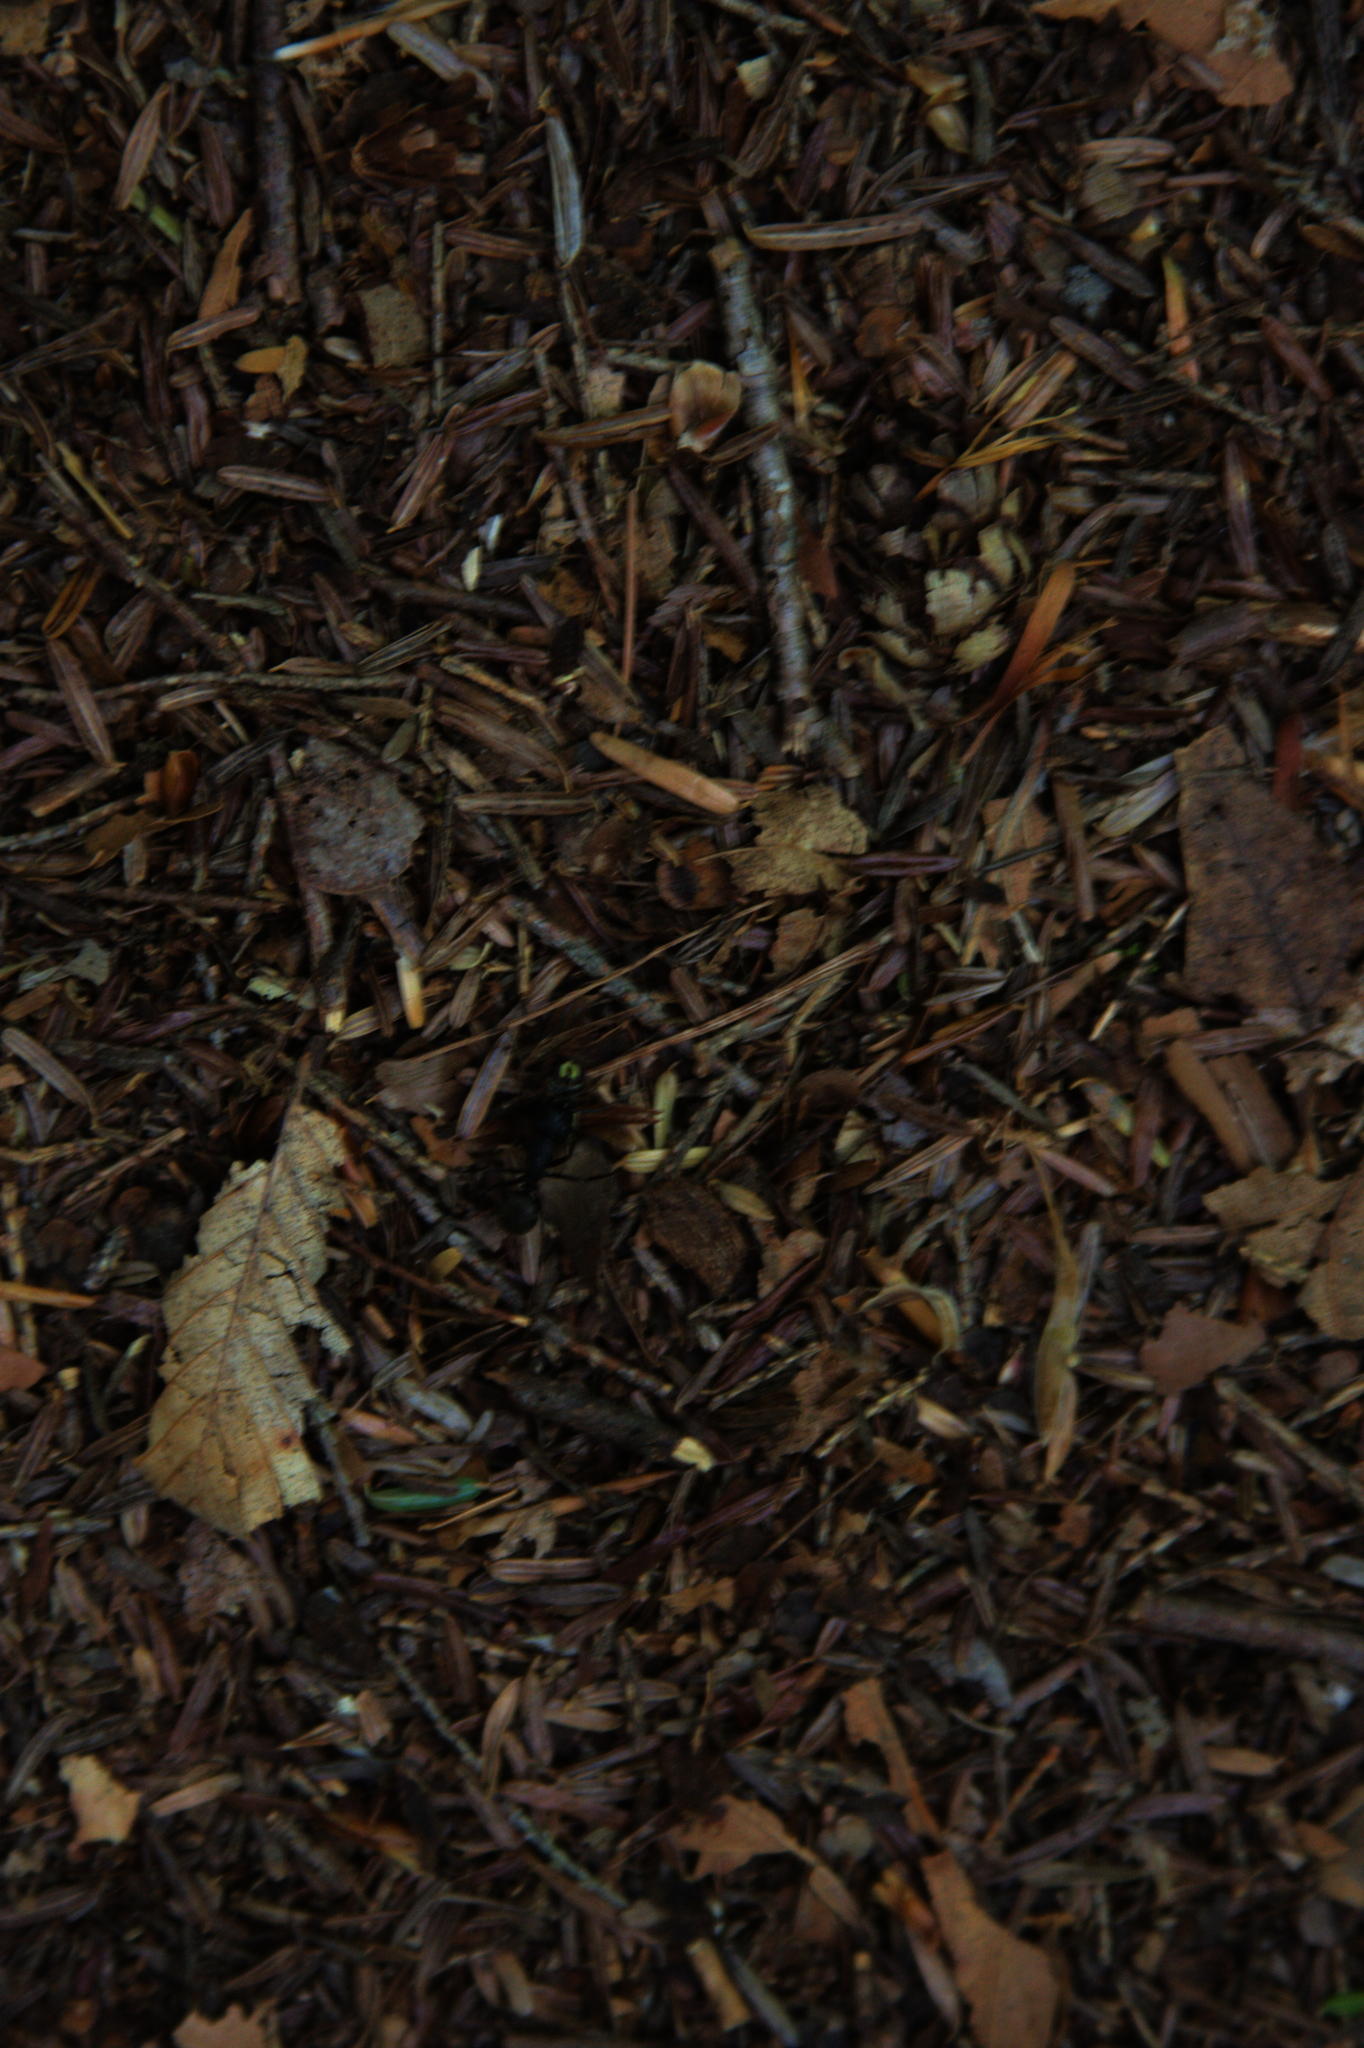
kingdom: Animalia
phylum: Arthropoda
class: Insecta
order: Hymenoptera
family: Formicidae
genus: Camponotus
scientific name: Camponotus pennsylvanicus
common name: Black carpenter ant
